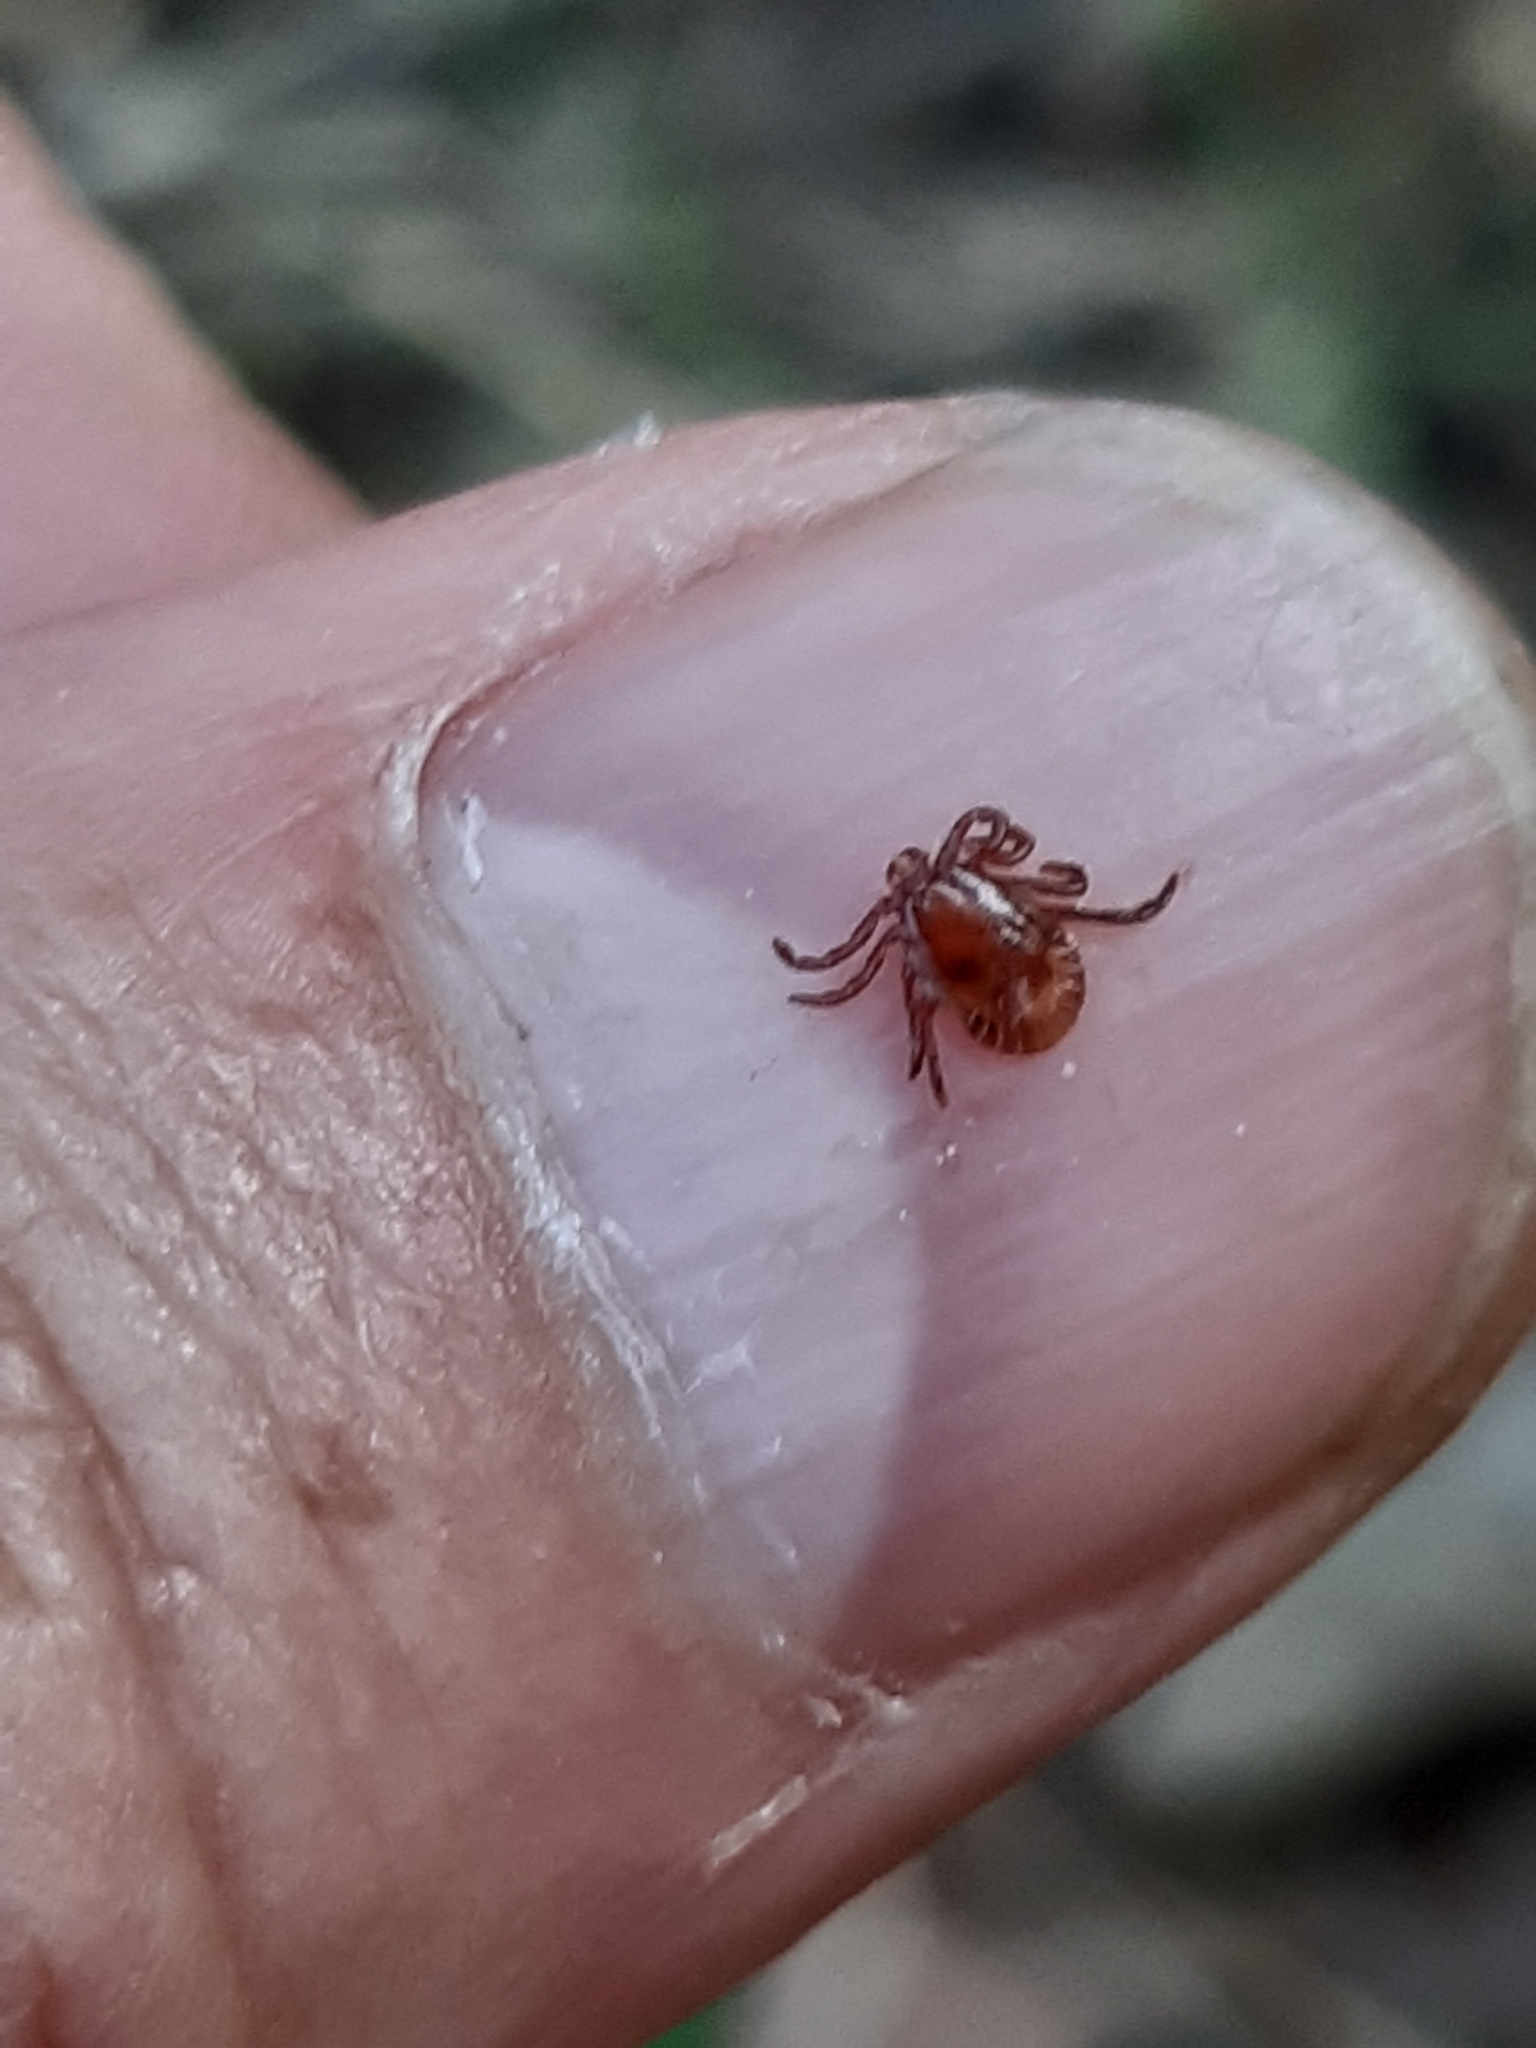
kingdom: Animalia
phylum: Arthropoda
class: Arachnida
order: Ixodida
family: Ixodidae
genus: Haemaphysalis
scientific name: Haemaphysalis concinna
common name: Relict tick
